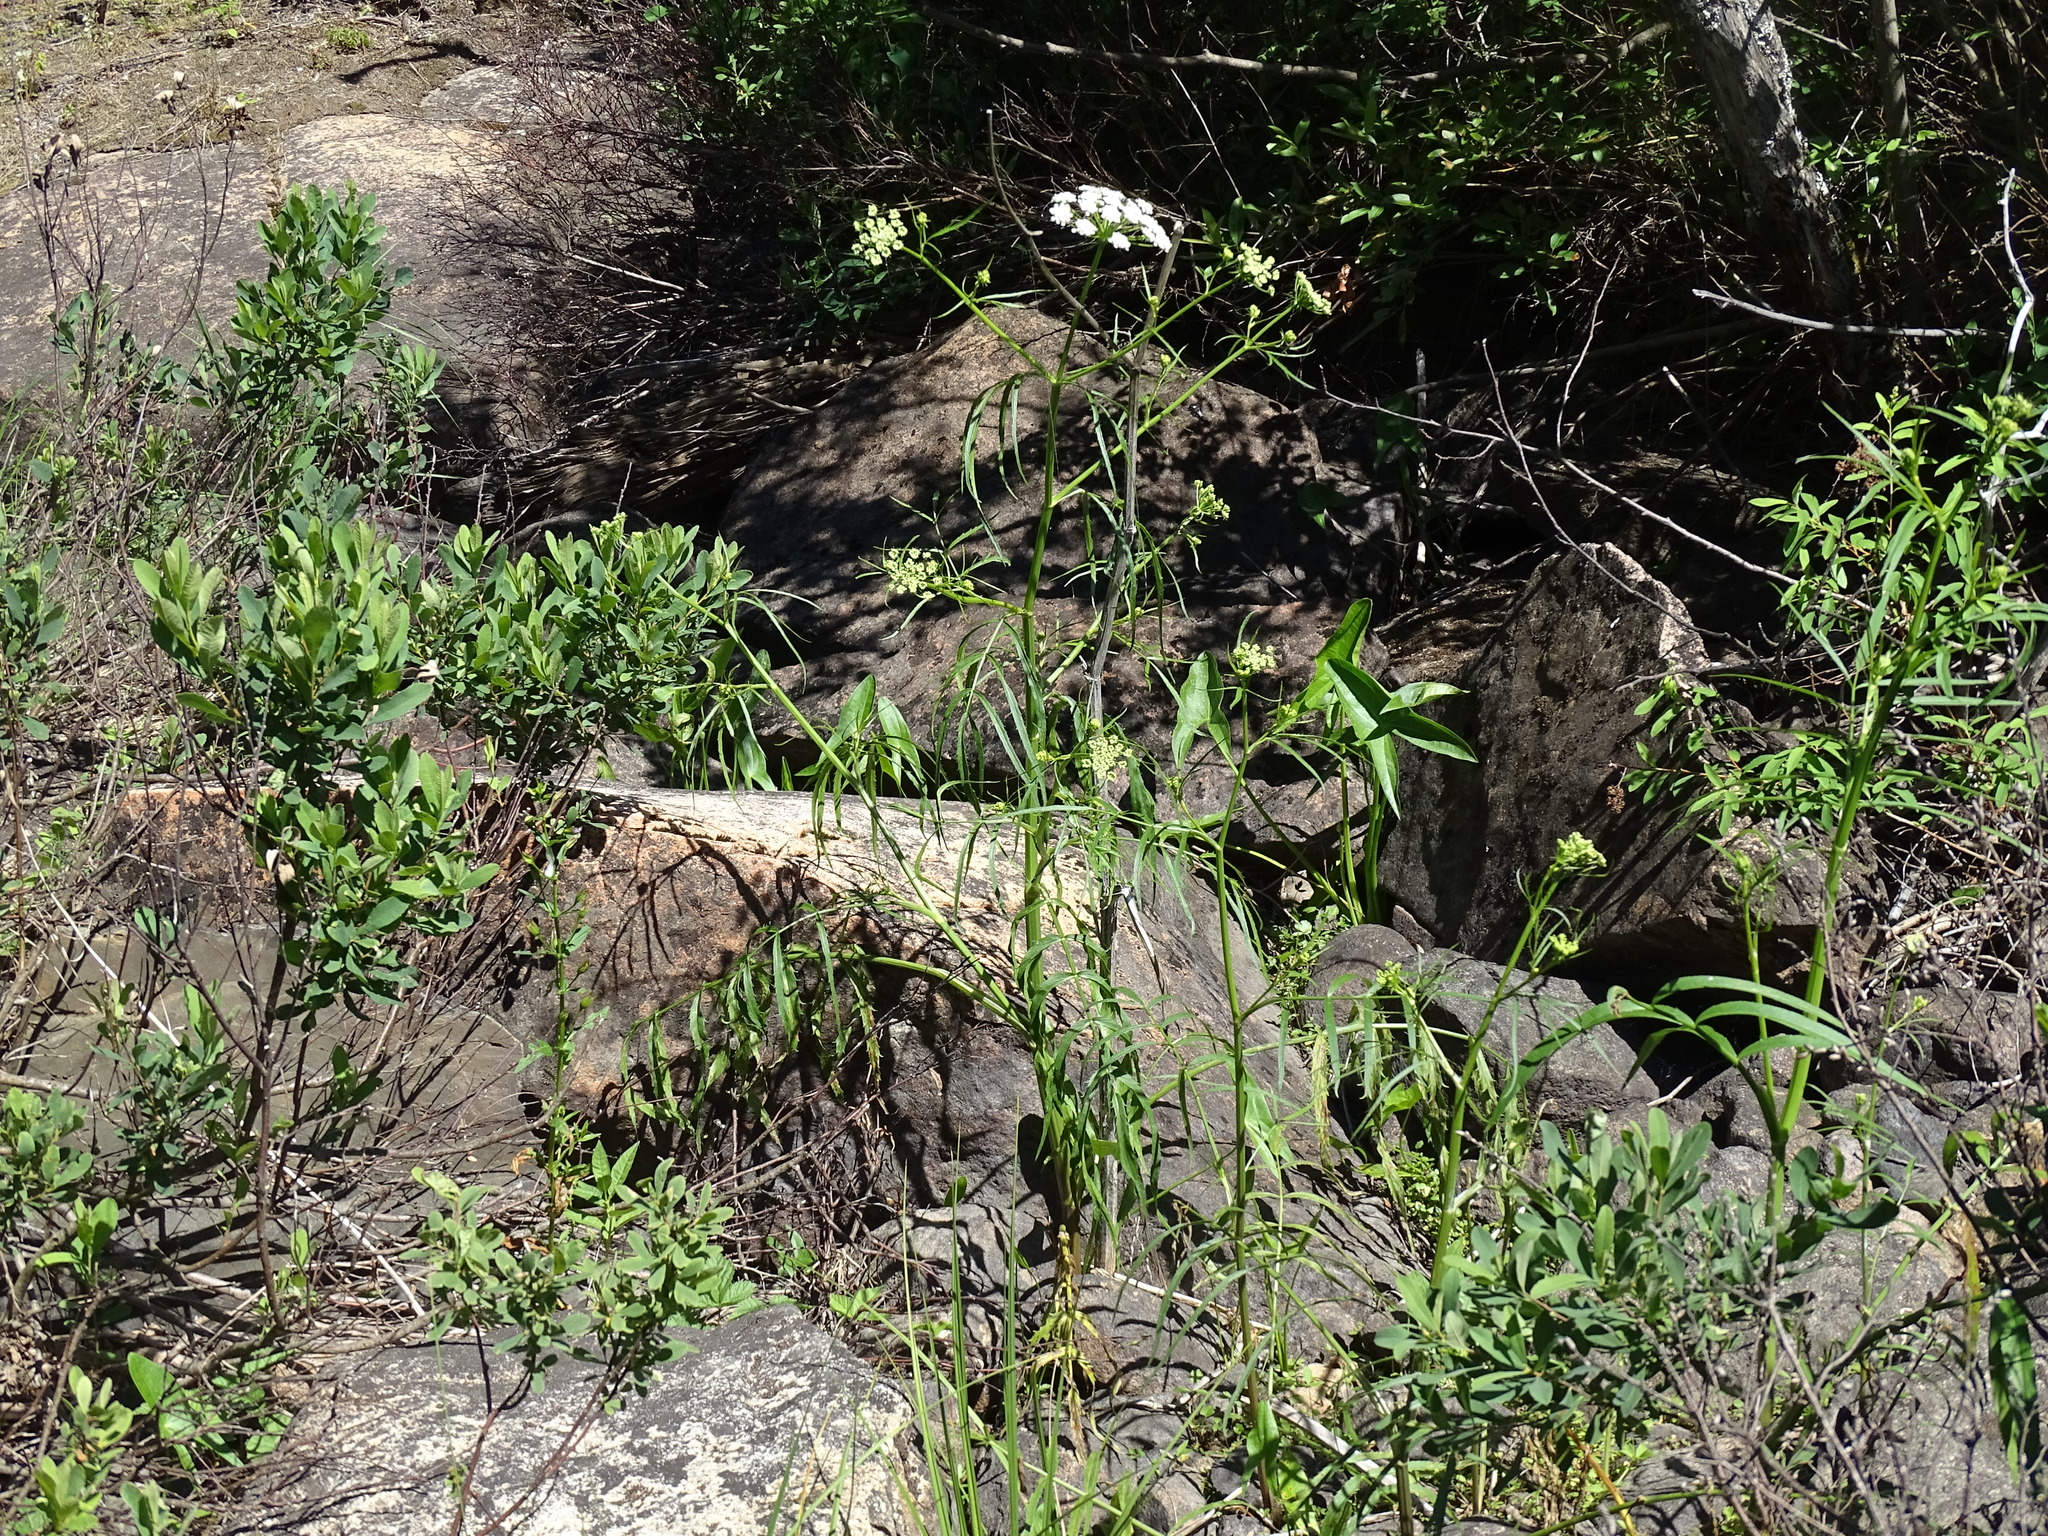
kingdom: Plantae
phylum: Tracheophyta
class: Magnoliopsida
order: Apiales
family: Apiaceae
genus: Sium
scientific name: Sium suave
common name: Hemlock water-parsnip
